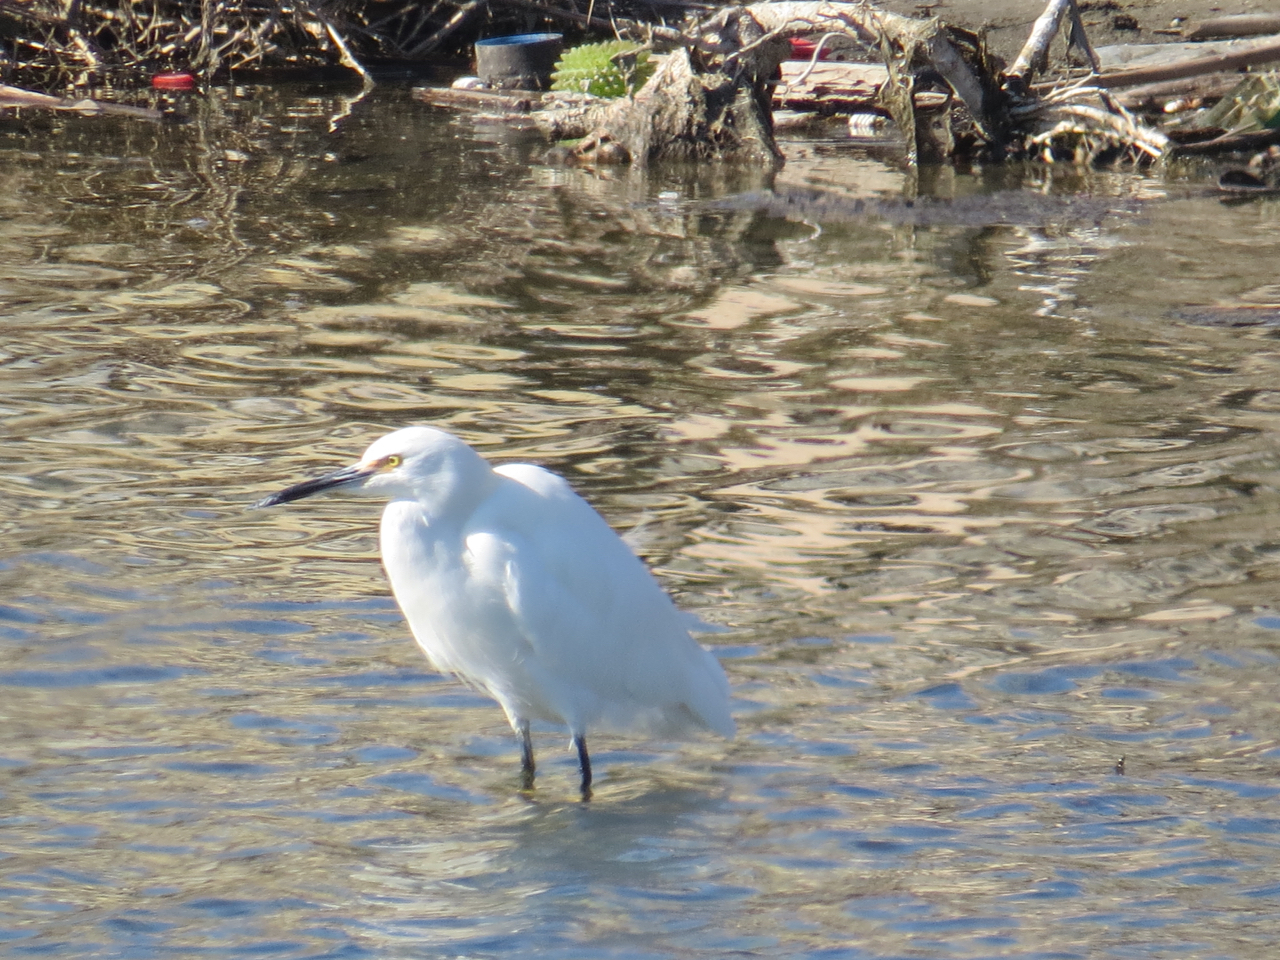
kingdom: Animalia
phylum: Chordata
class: Aves
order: Pelecaniformes
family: Ardeidae
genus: Egretta
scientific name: Egretta thula
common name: Snowy egret
